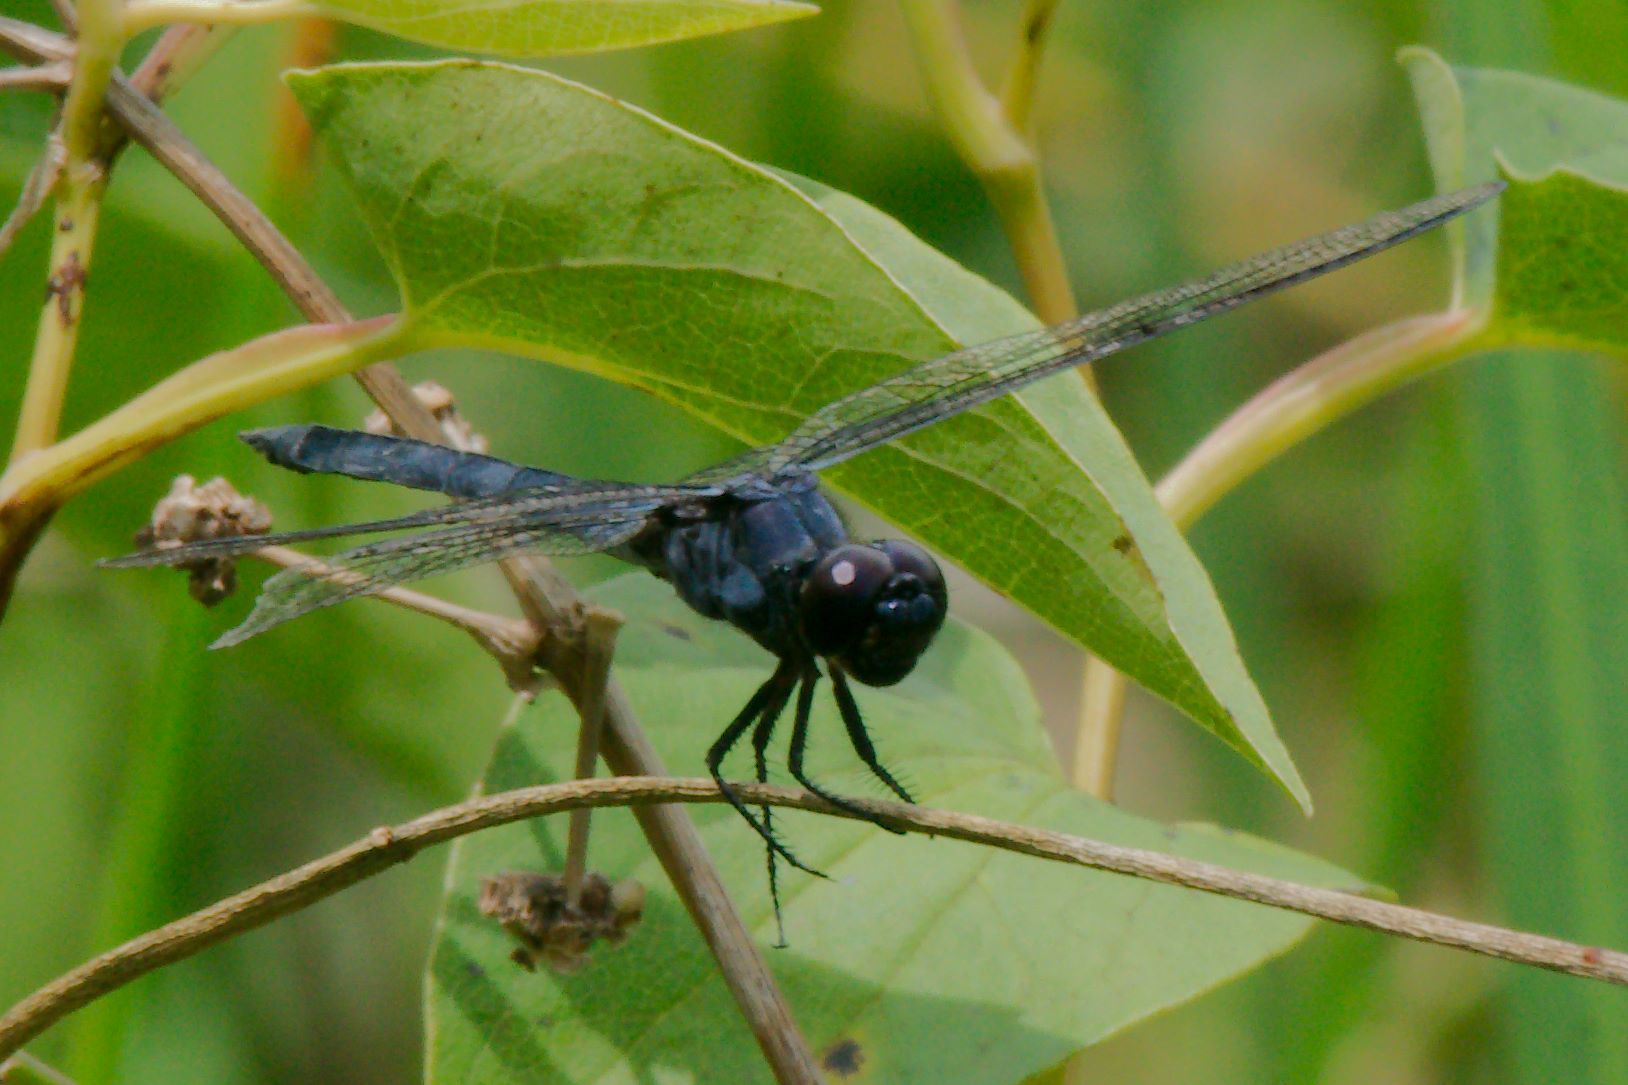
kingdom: Animalia
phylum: Arthropoda
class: Insecta
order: Odonata
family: Libellulidae
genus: Libellula
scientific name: Libellula incesta
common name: Slaty skimmer
